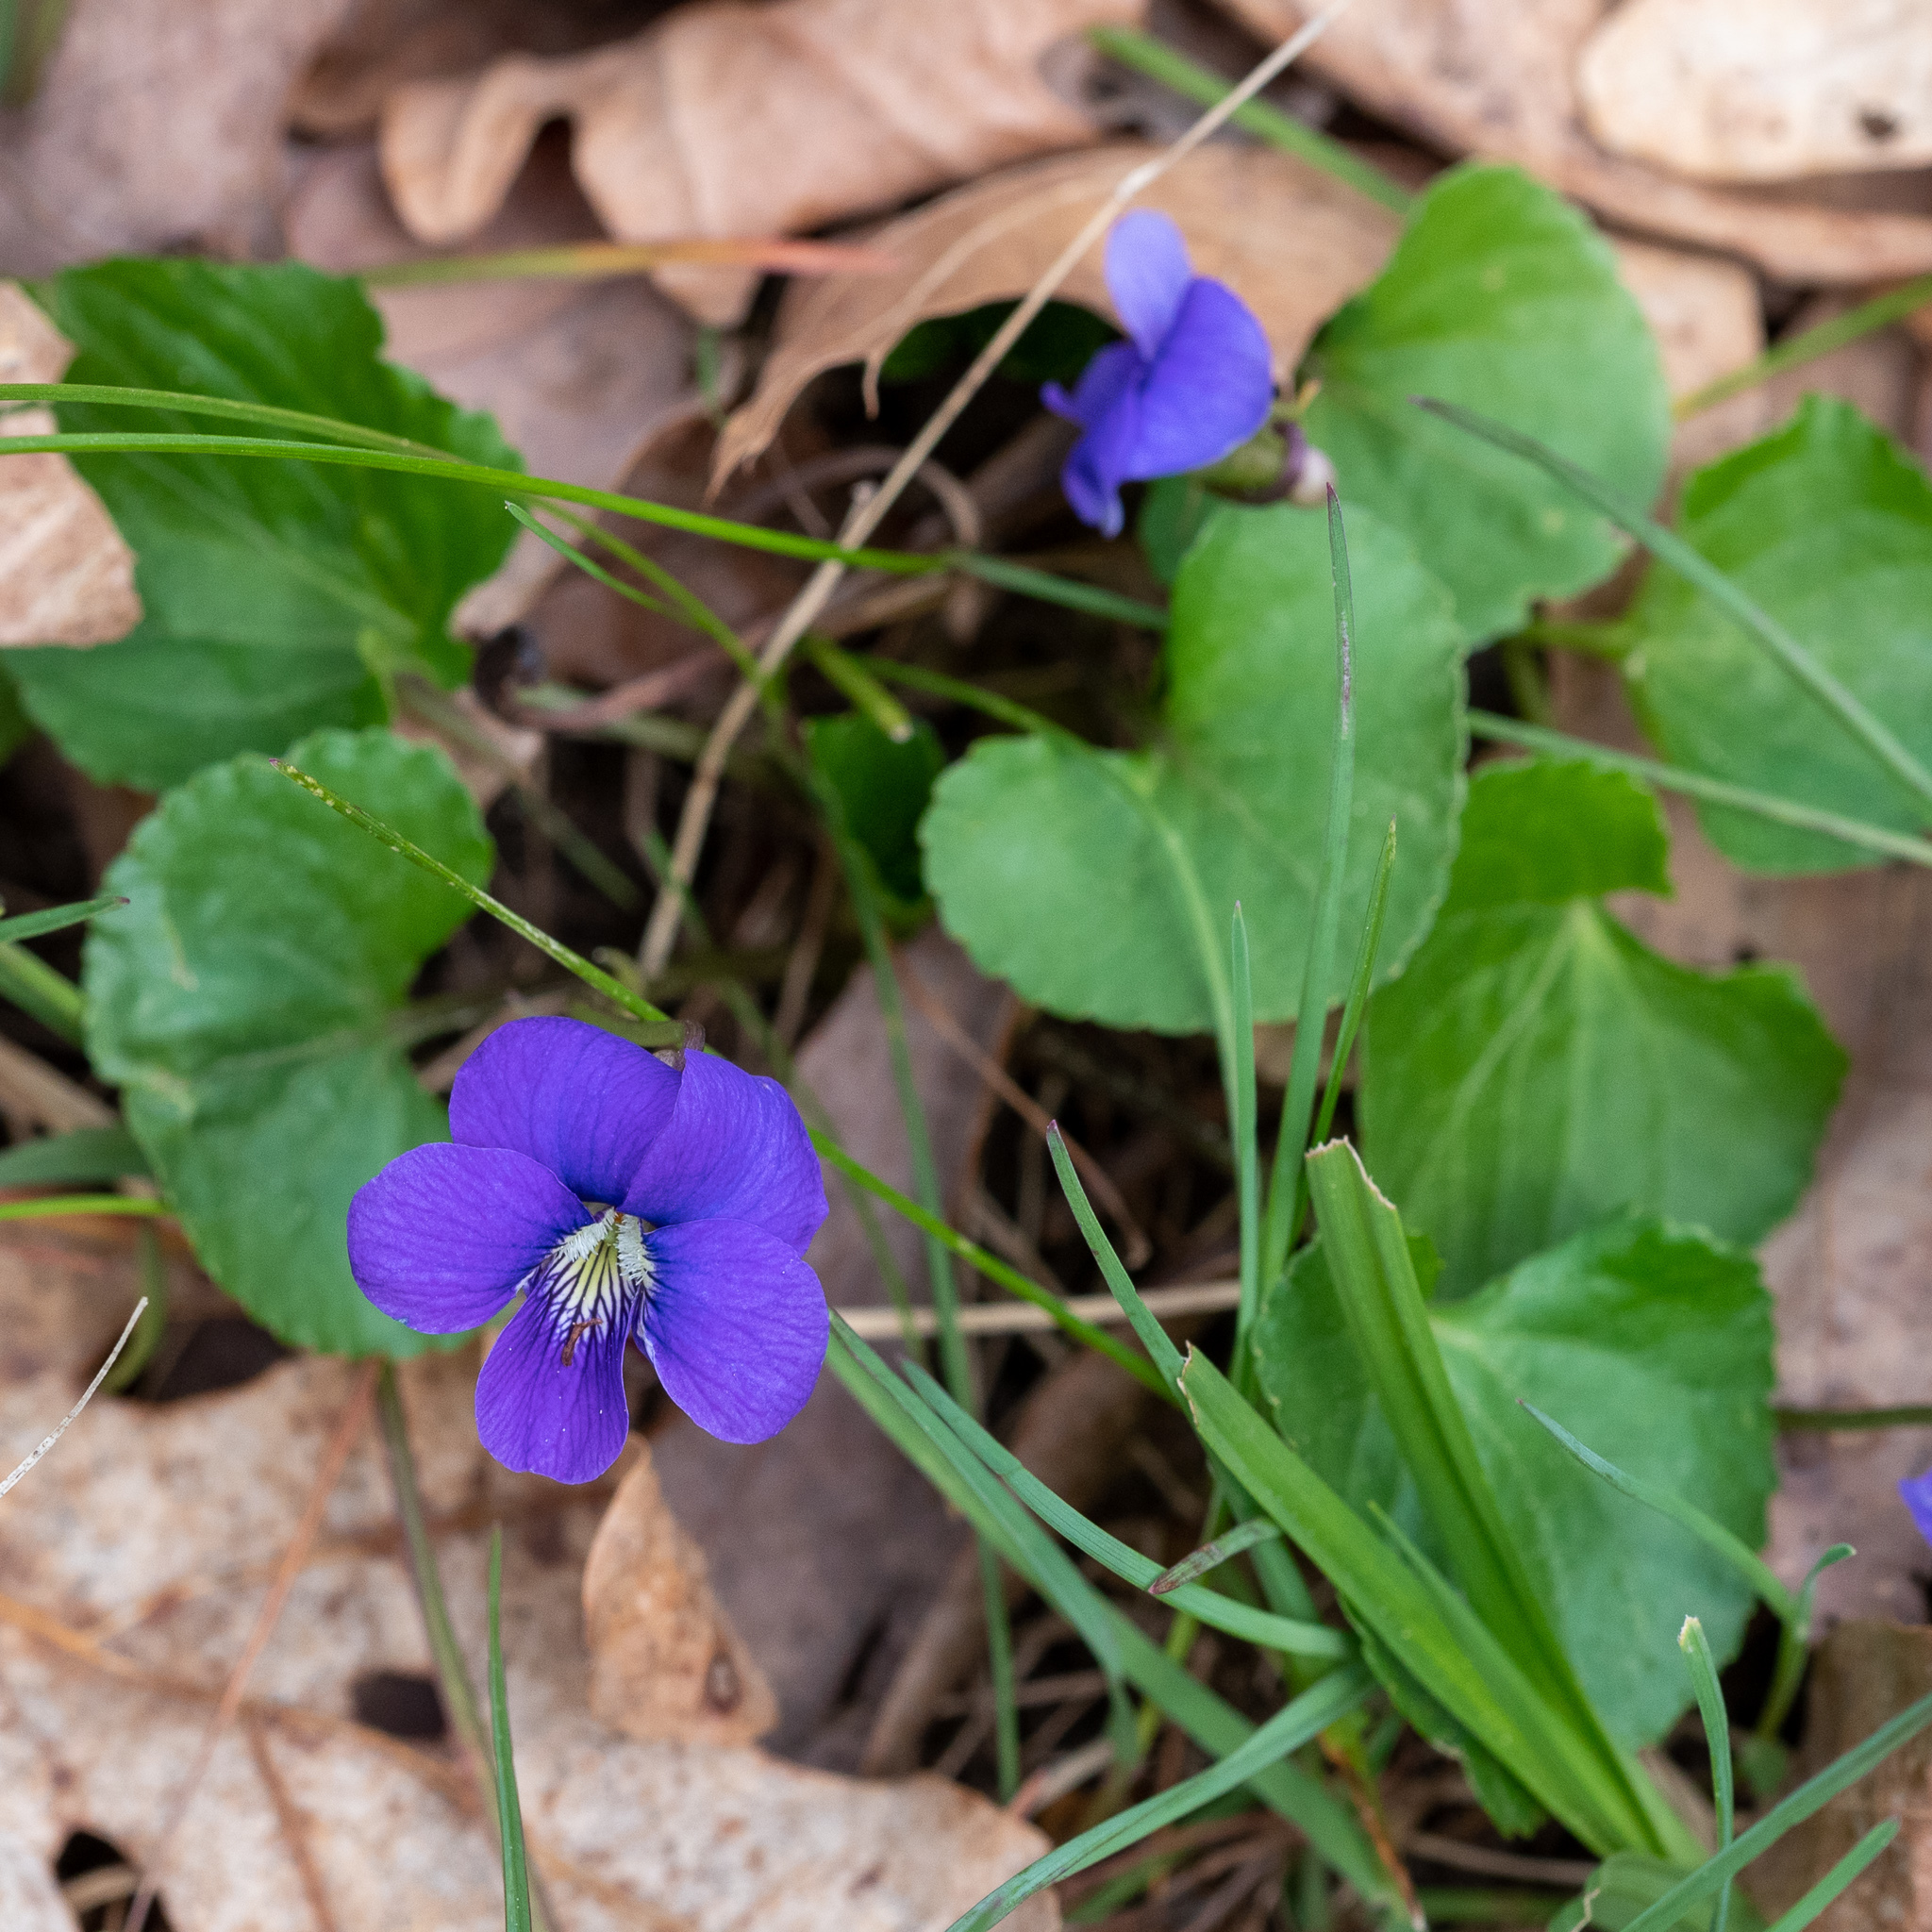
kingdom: Plantae
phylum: Tracheophyta
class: Magnoliopsida
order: Malpighiales
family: Violaceae
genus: Viola
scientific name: Viola sororia
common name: Dooryard violet
